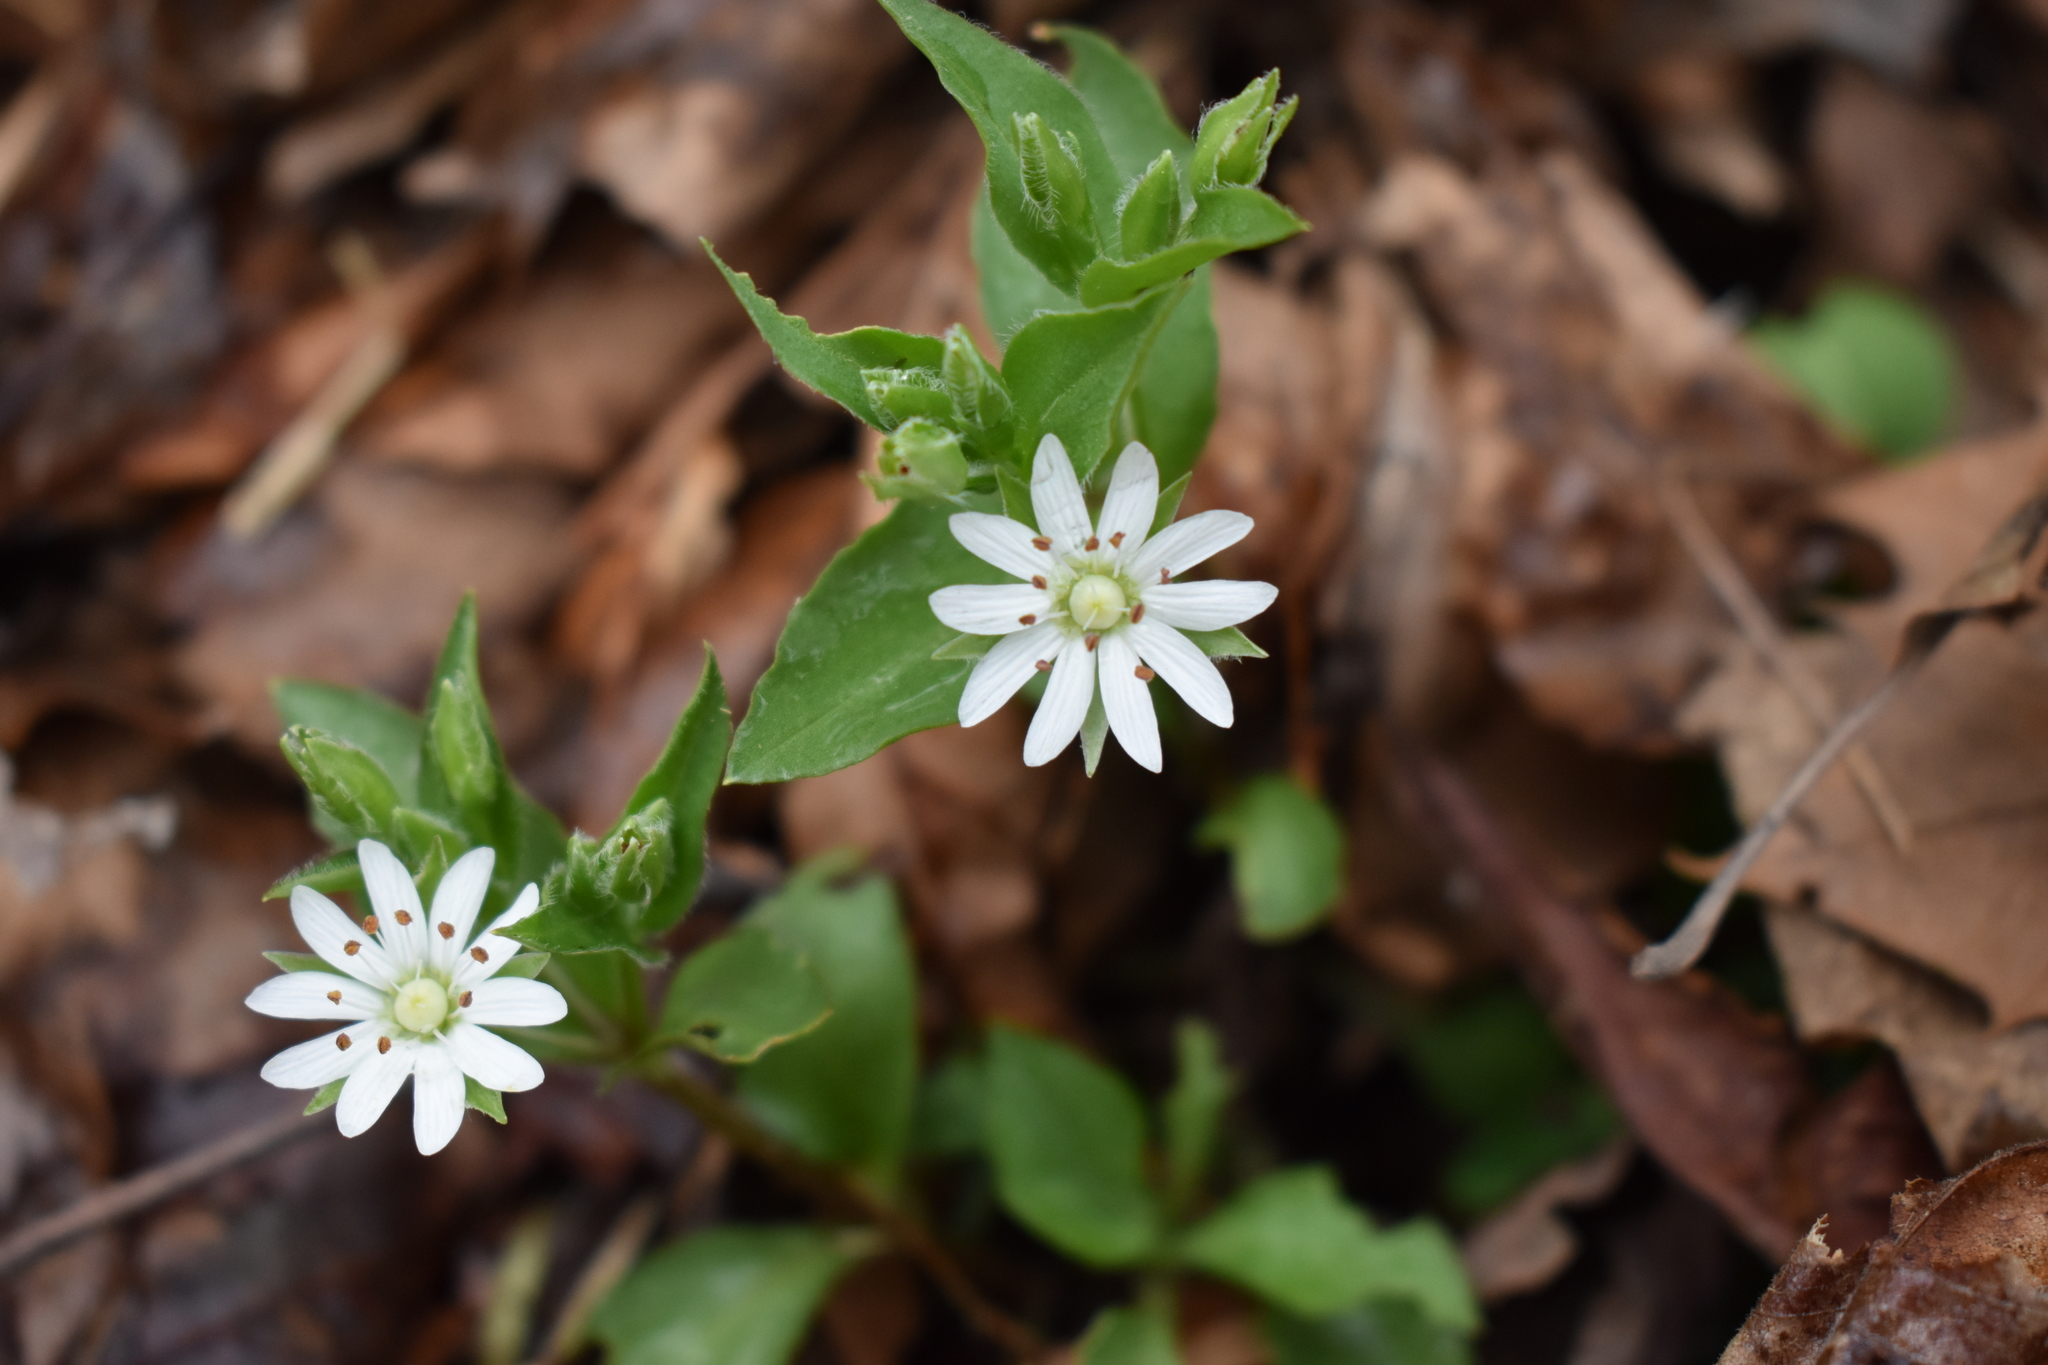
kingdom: Plantae
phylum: Tracheophyta
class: Magnoliopsida
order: Caryophyllales
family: Caryophyllaceae
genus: Stellaria
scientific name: Stellaria pubera
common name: Star chickweed
